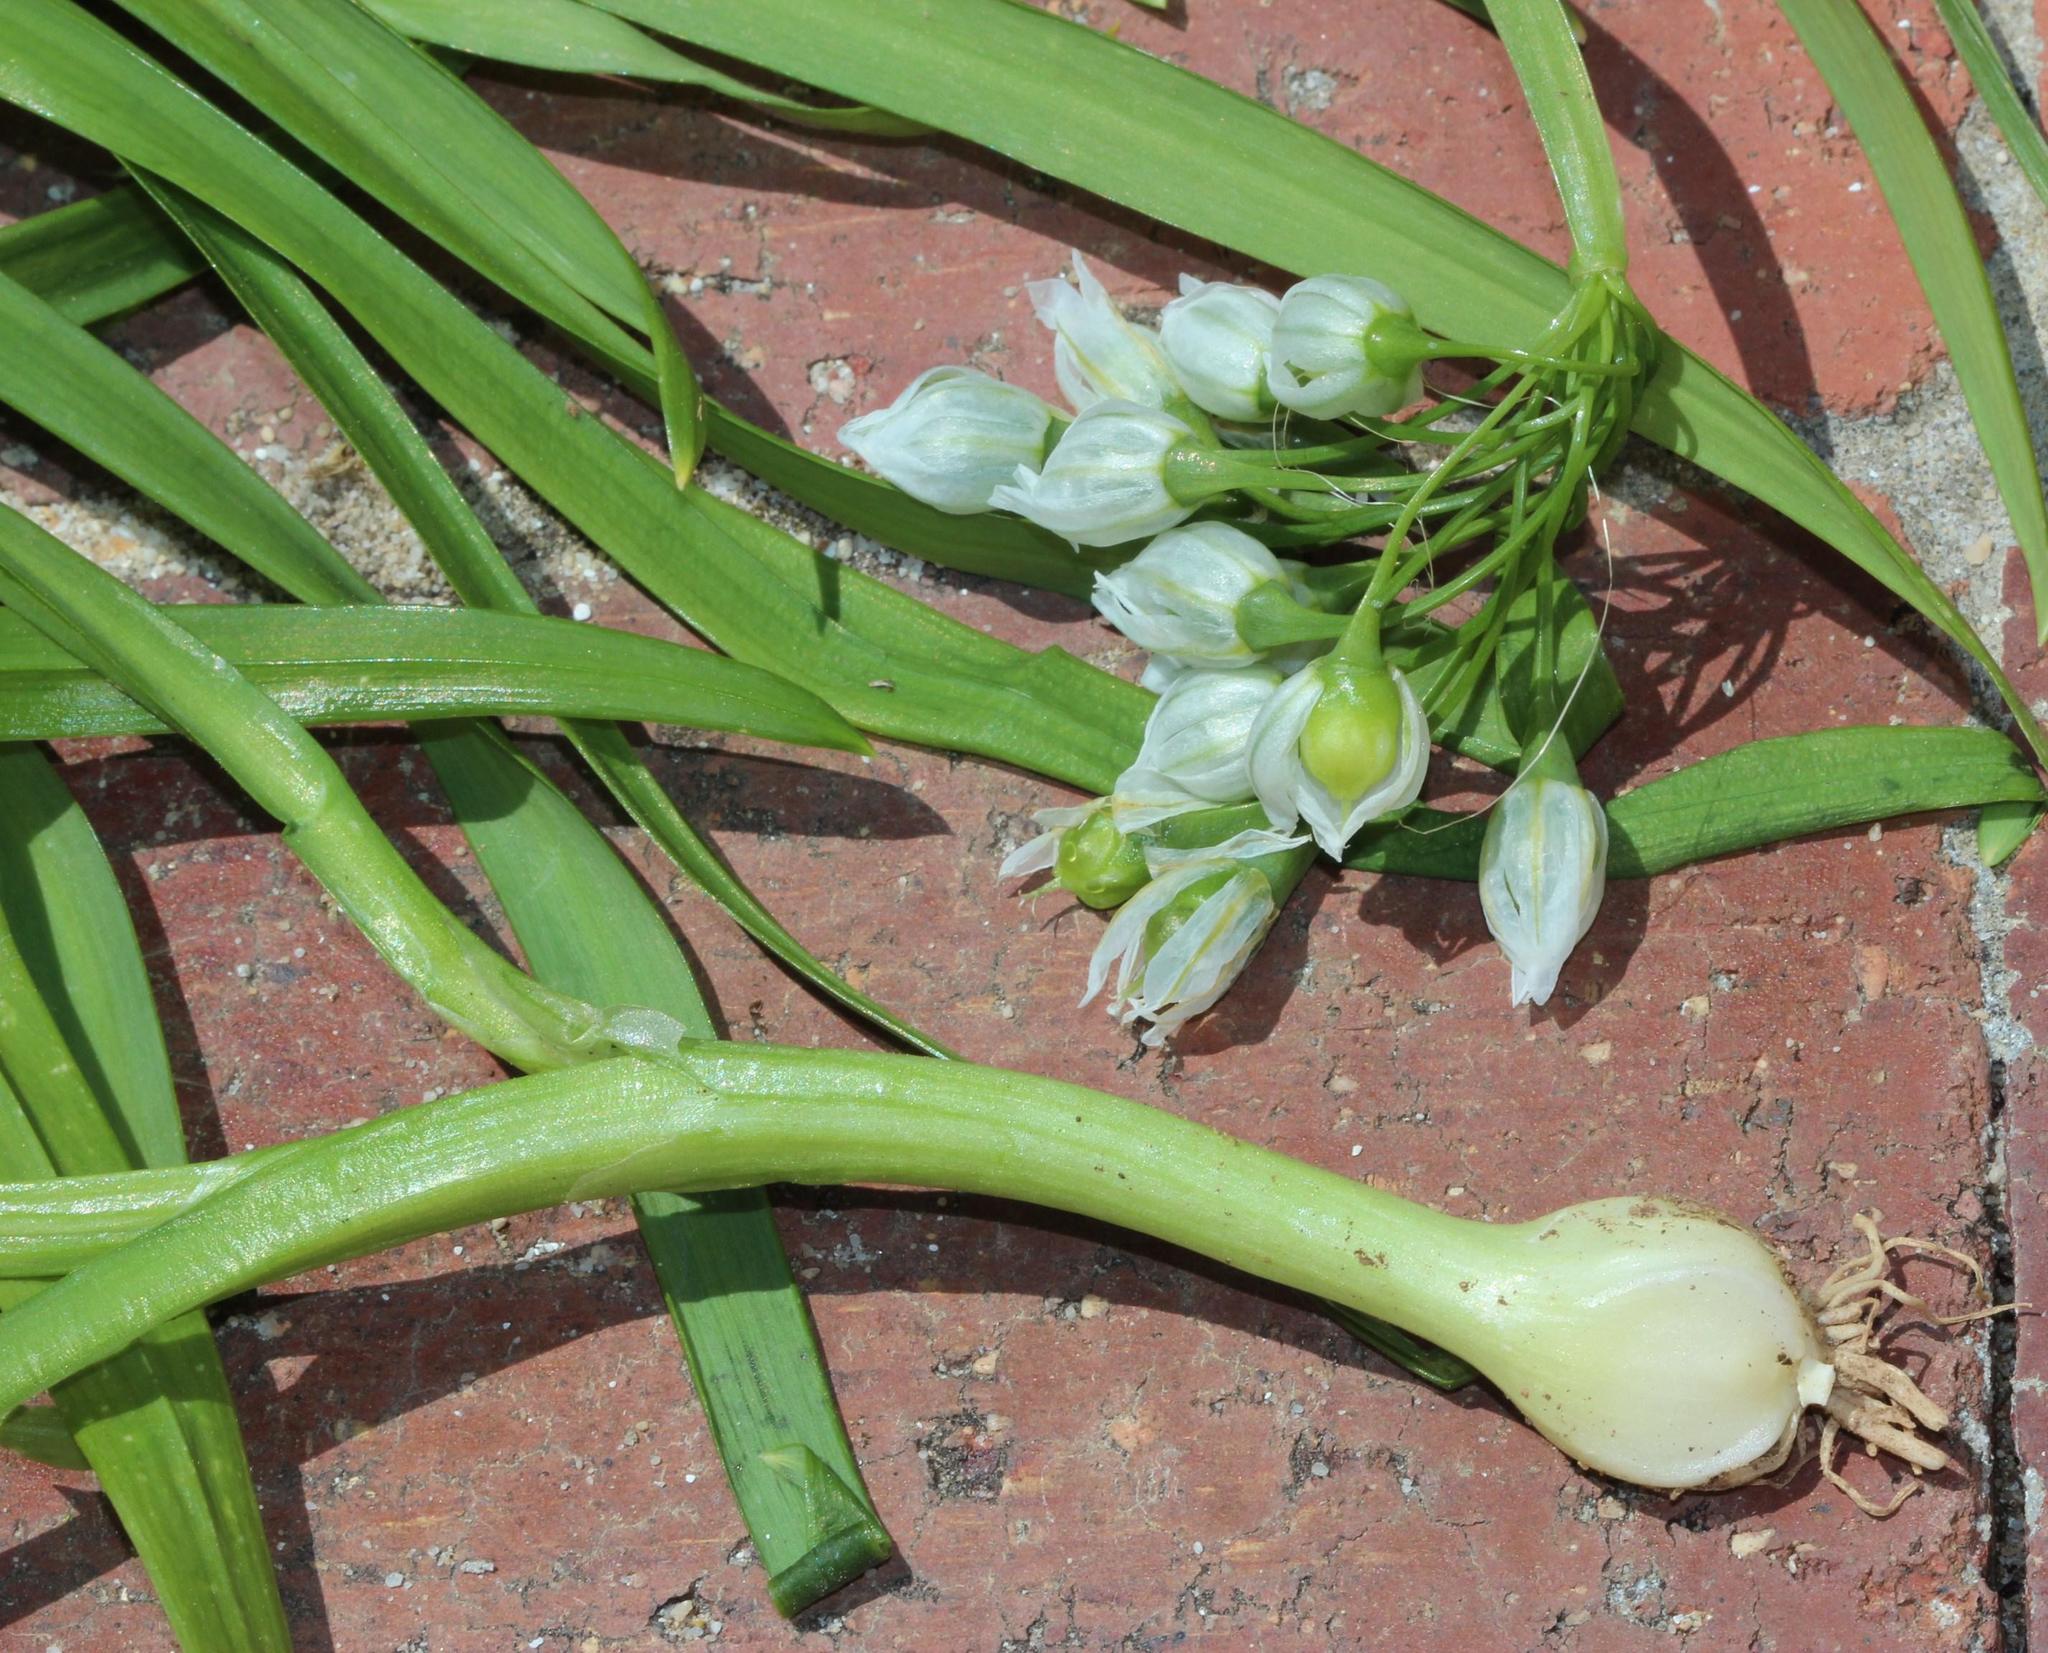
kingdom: Plantae
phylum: Tracheophyta
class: Liliopsida
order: Asparagales
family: Amaryllidaceae
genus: Allium
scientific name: Allium triquetrum
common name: Three-cornered garlic
